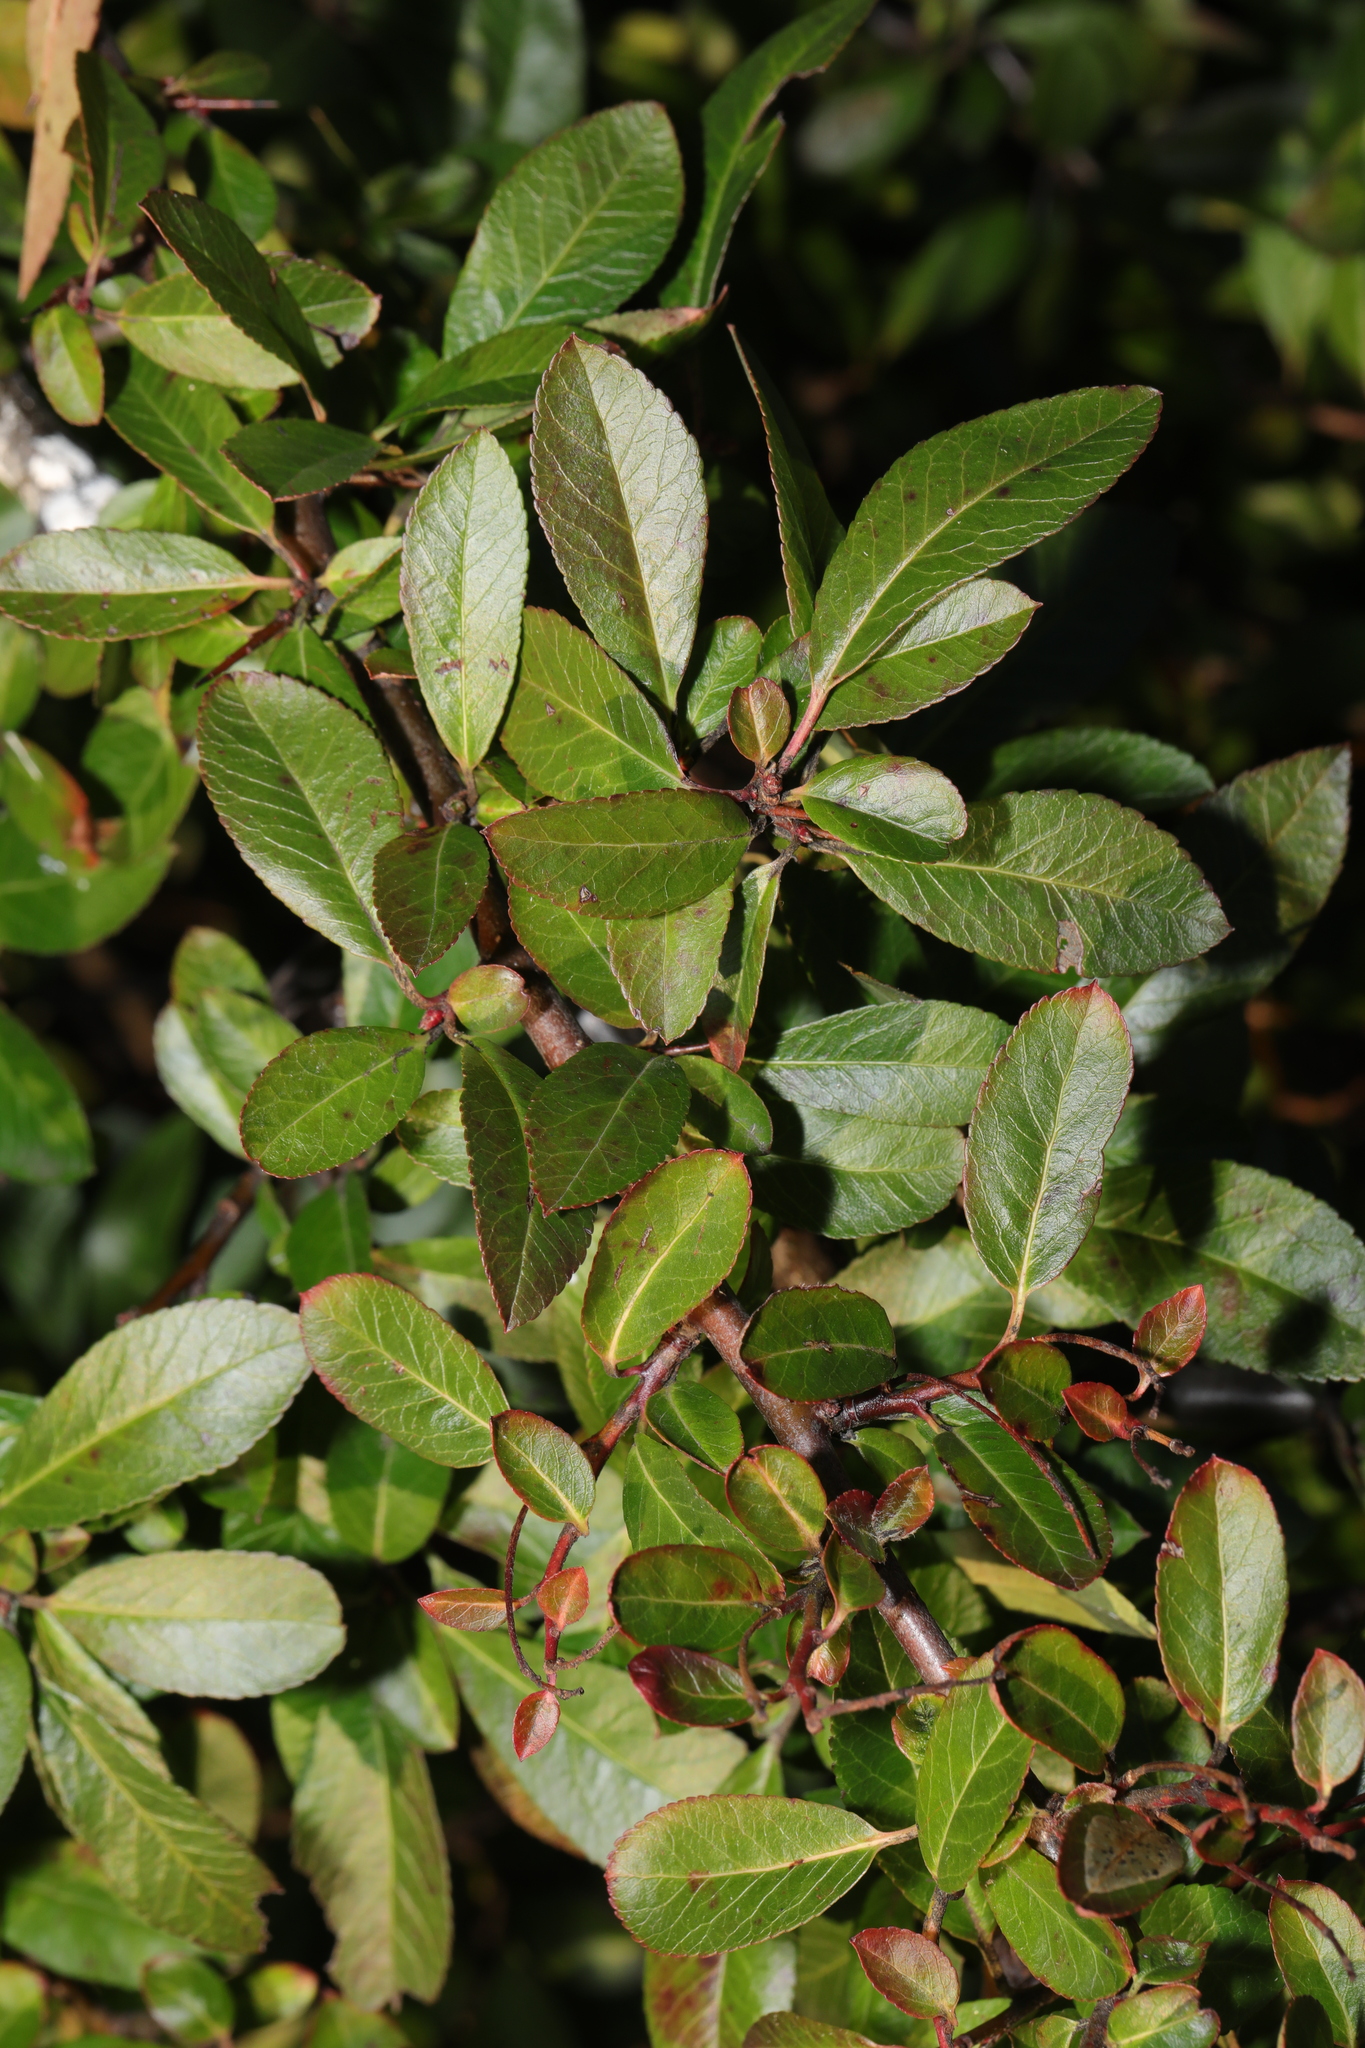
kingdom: Plantae
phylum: Tracheophyta
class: Magnoliopsida
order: Rosales
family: Rosaceae
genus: Pyracantha
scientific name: Pyracantha coccinea
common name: Firethorn
